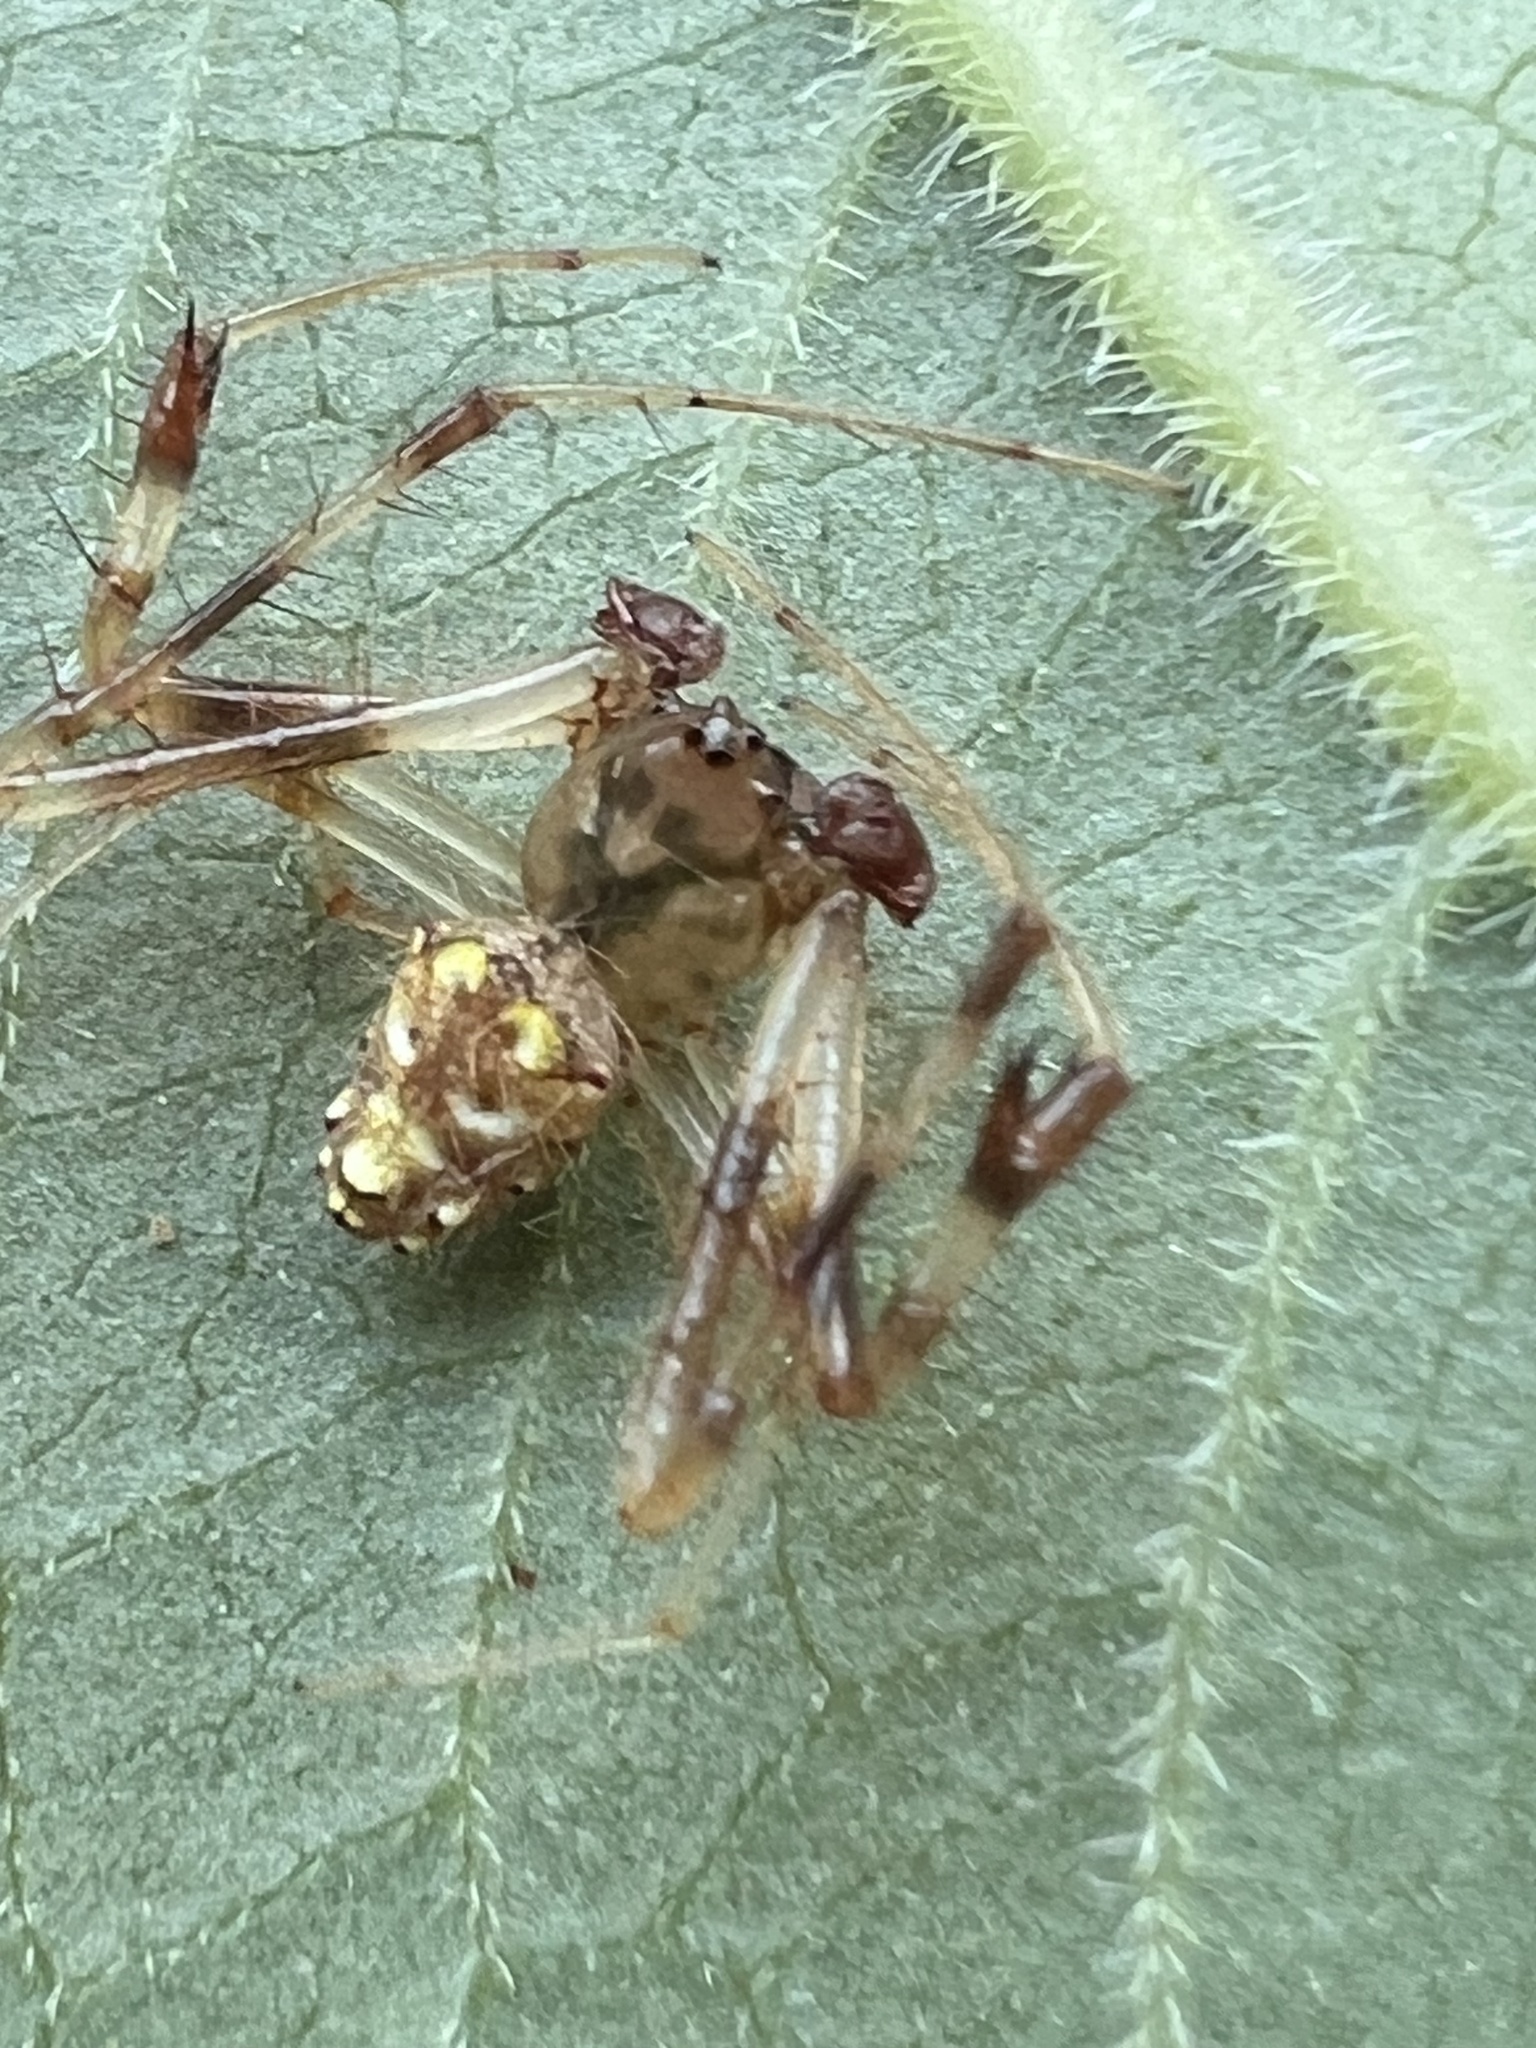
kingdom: Animalia
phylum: Arthropoda
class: Arachnida
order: Araneae
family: Araneidae
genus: Verrucosa
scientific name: Verrucosa arenata
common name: Orb weavers
